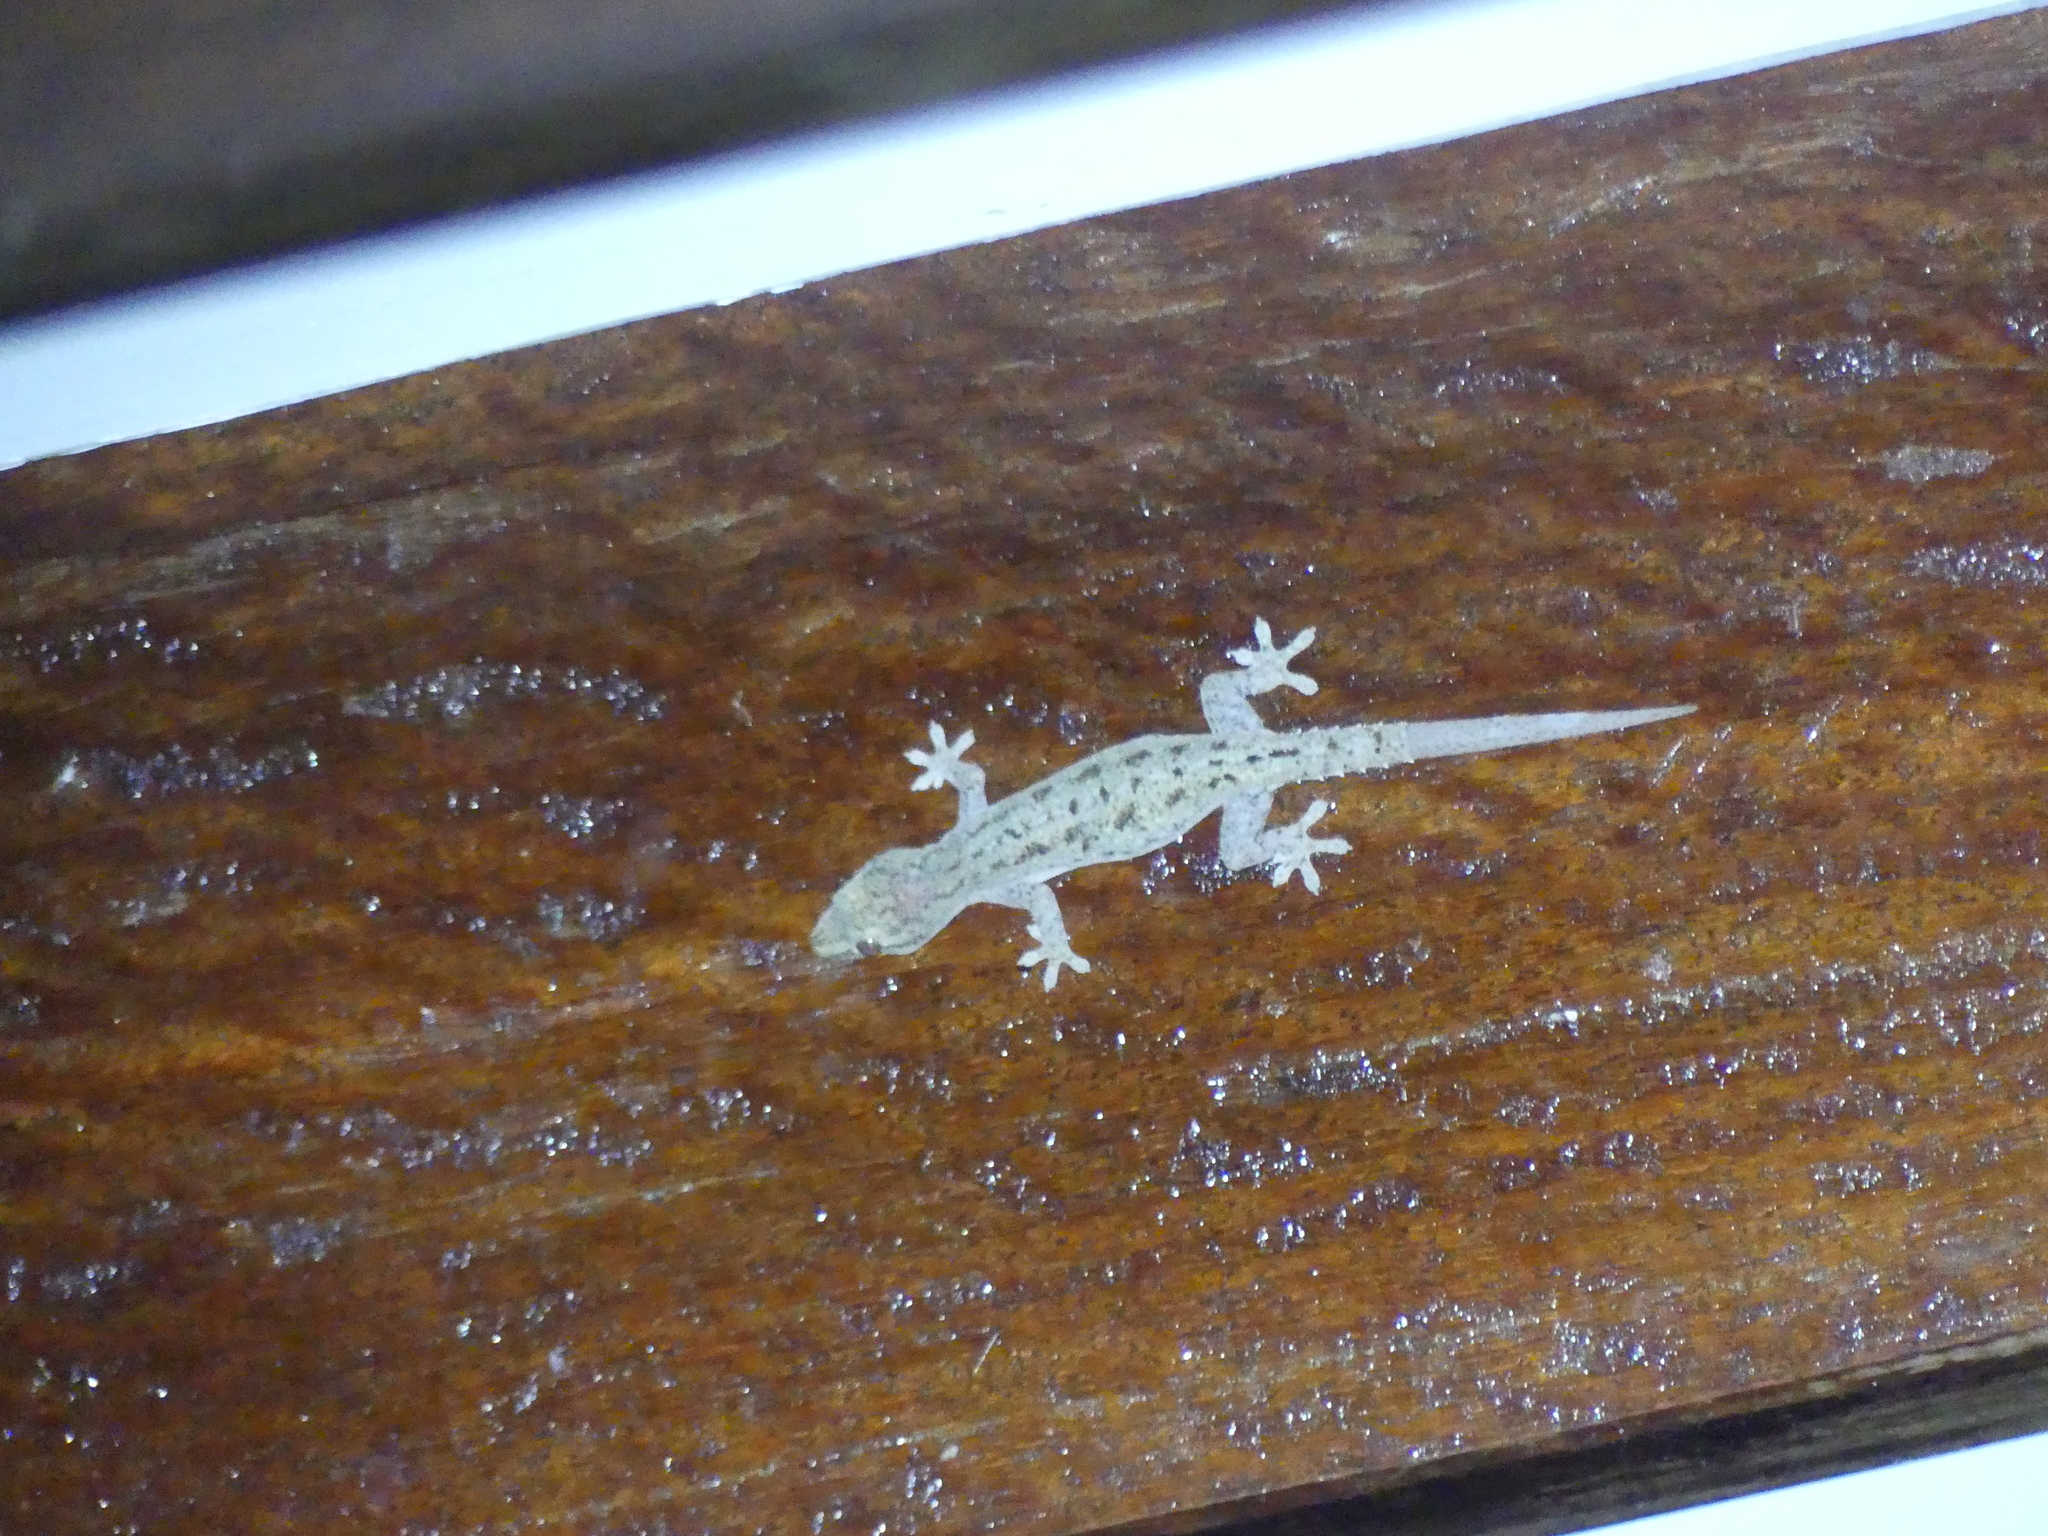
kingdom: Animalia
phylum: Chordata
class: Squamata
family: Gekkonidae
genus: Hemidactylus
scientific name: Hemidactylus frenatus
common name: Common house gecko
